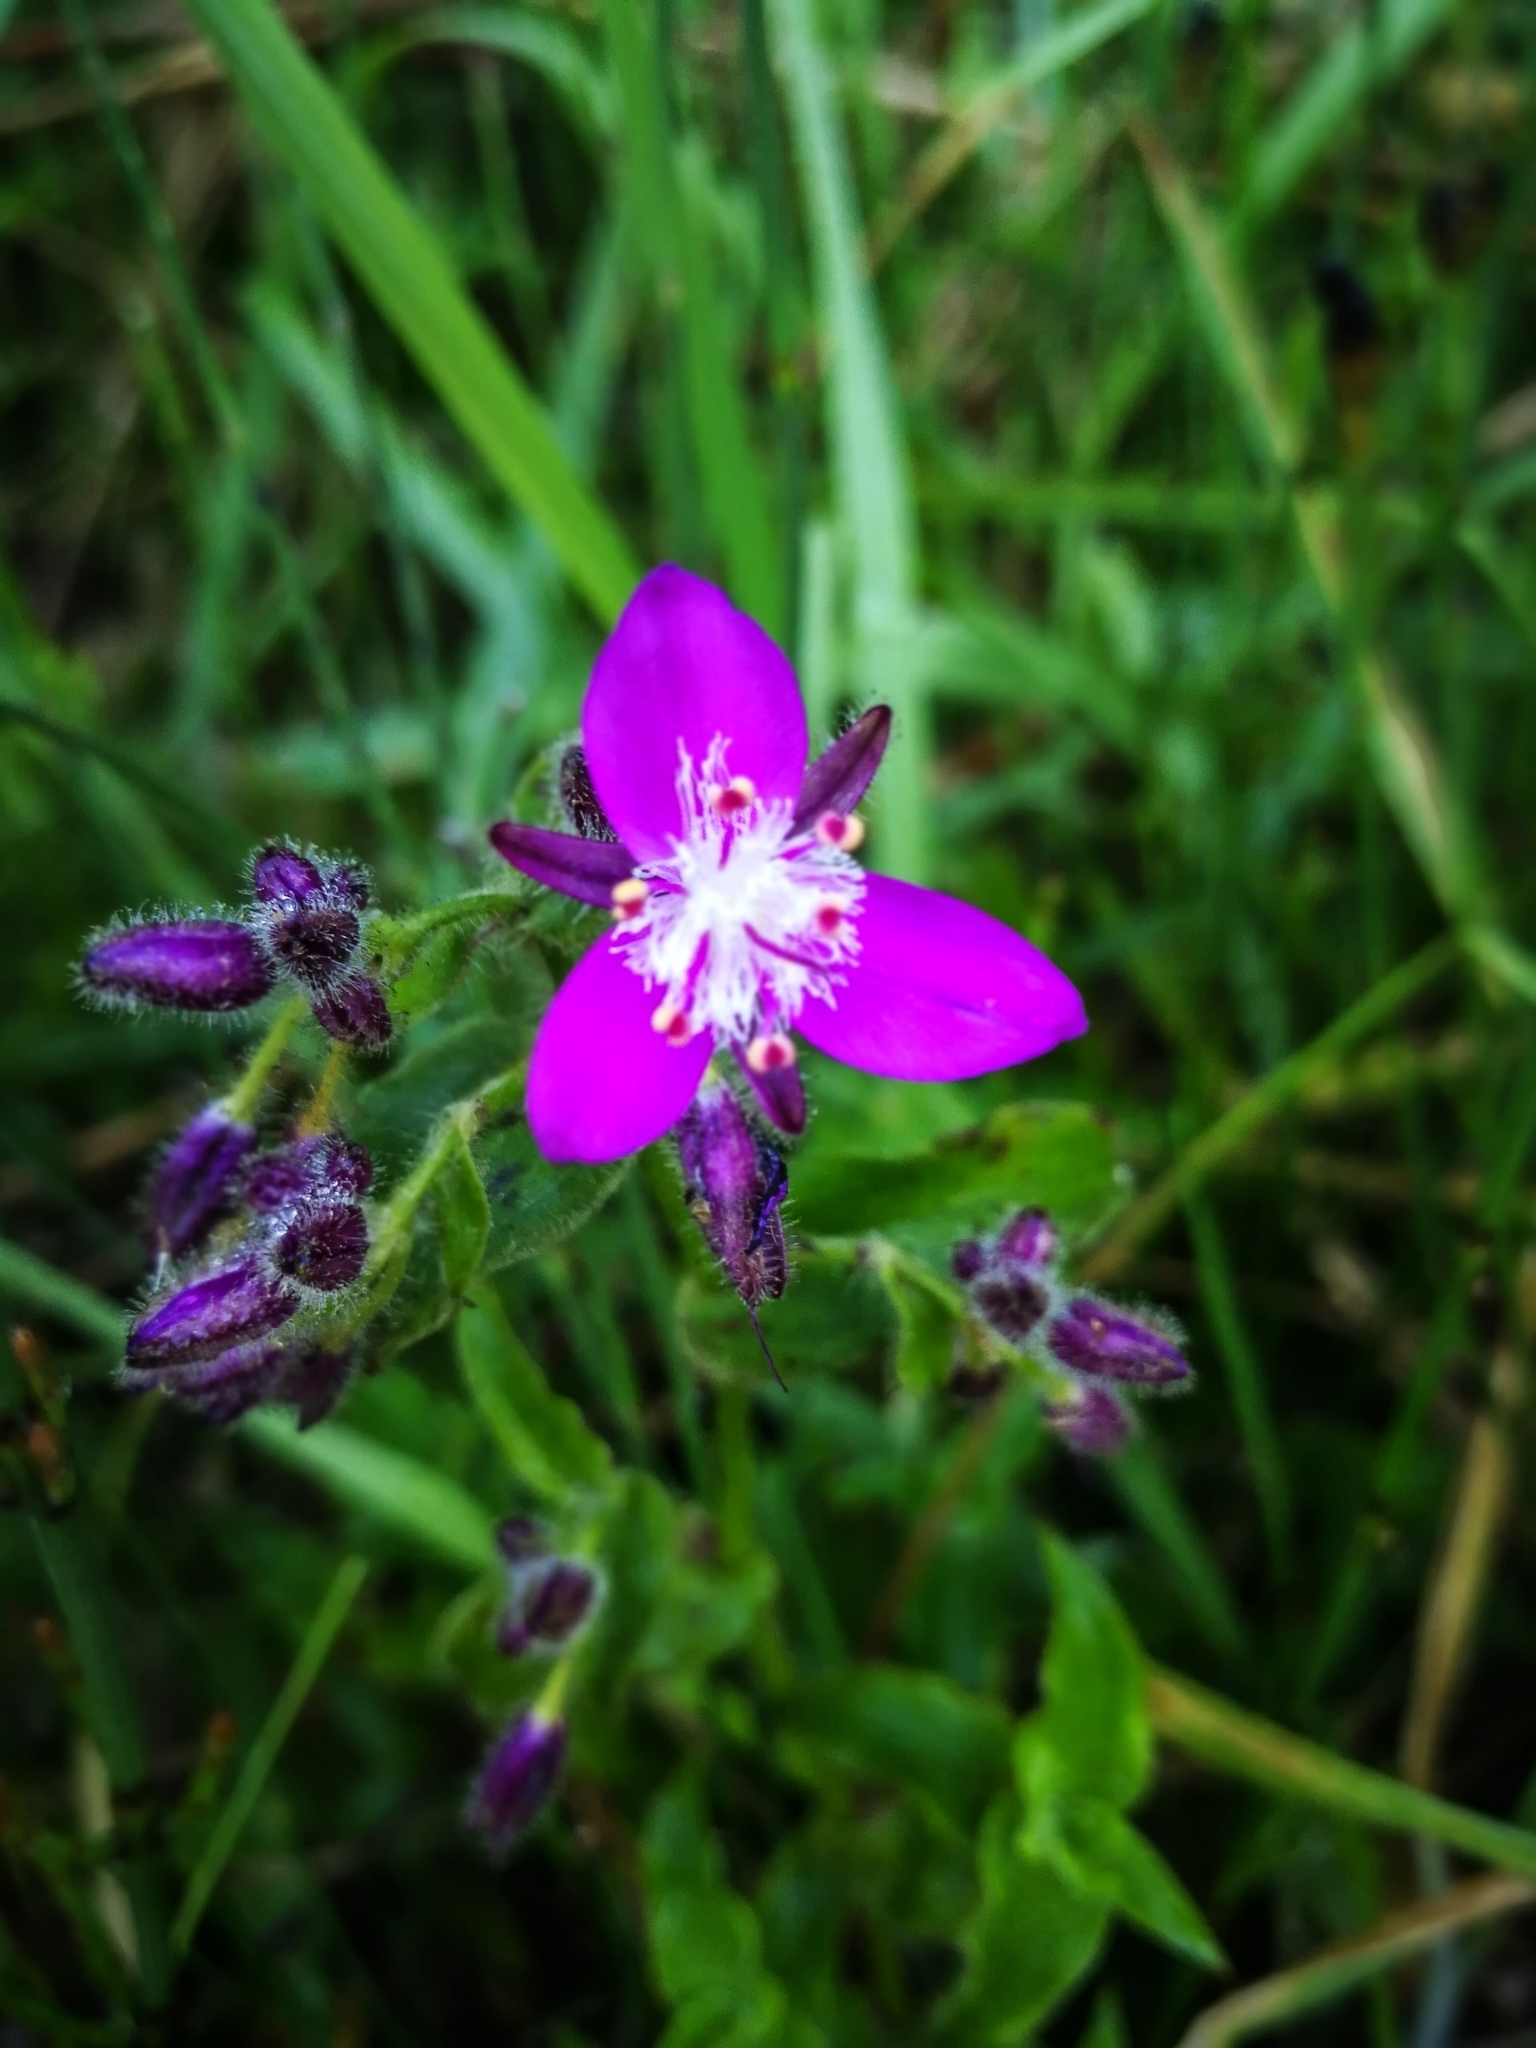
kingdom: Plantae
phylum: Tracheophyta
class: Liliopsida
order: Commelinales
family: Commelinaceae
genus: Elasis
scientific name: Elasis hirsuta
